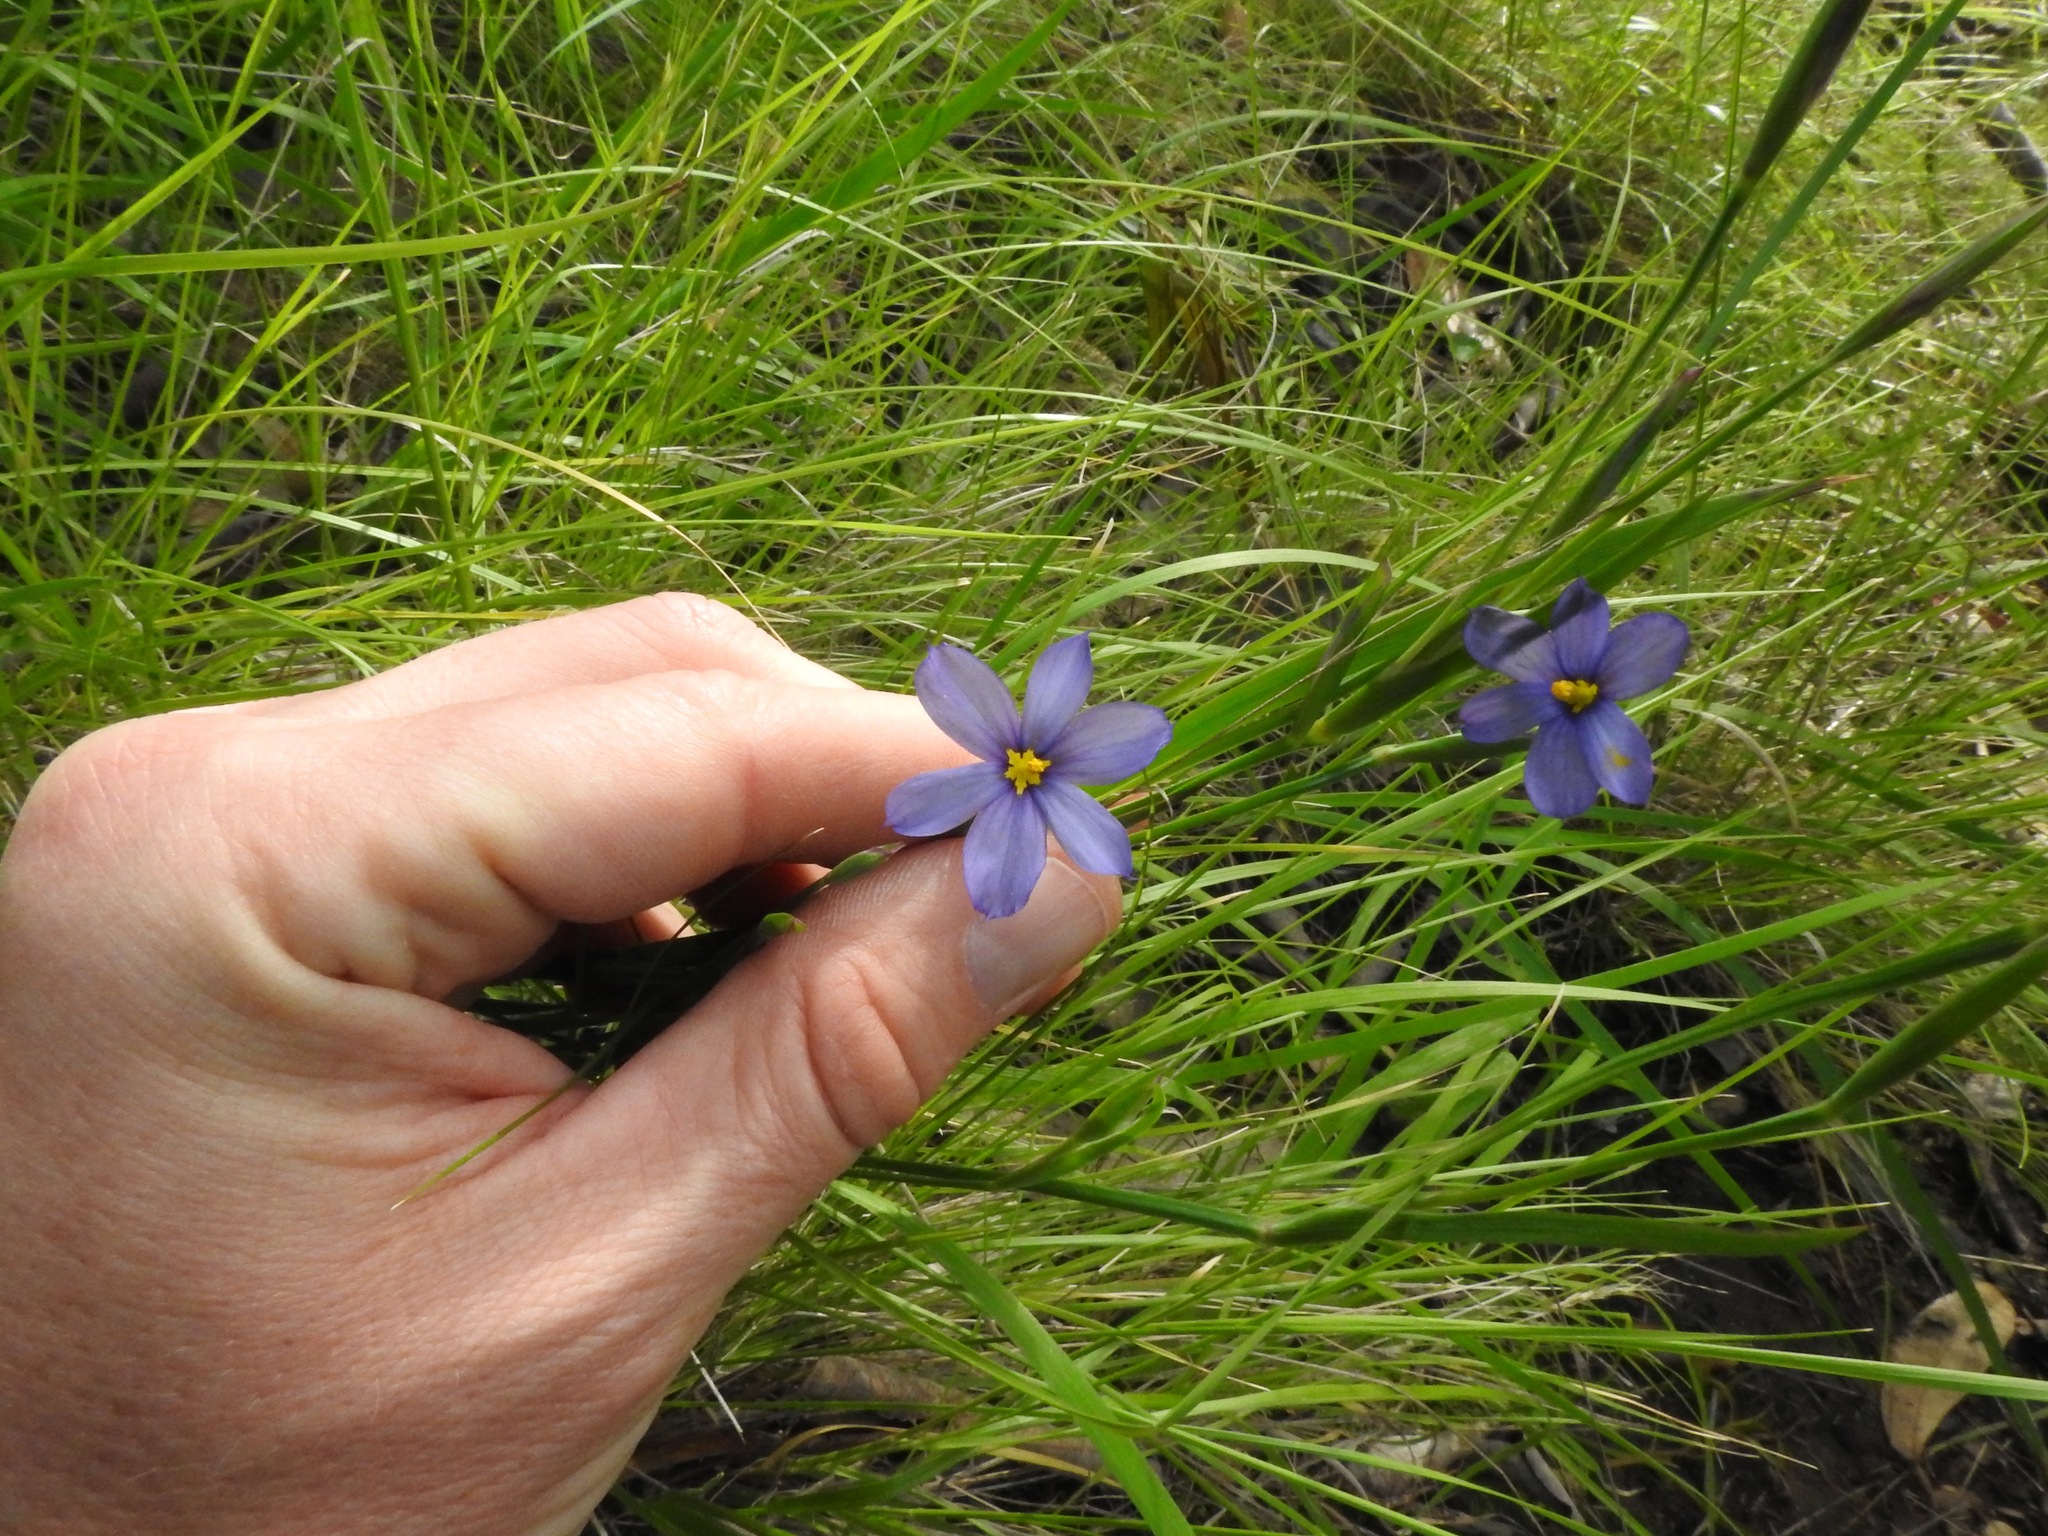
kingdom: Plantae
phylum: Tracheophyta
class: Liliopsida
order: Asparagales
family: Iridaceae
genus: Sisyrinchium
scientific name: Sisyrinchium bellum
